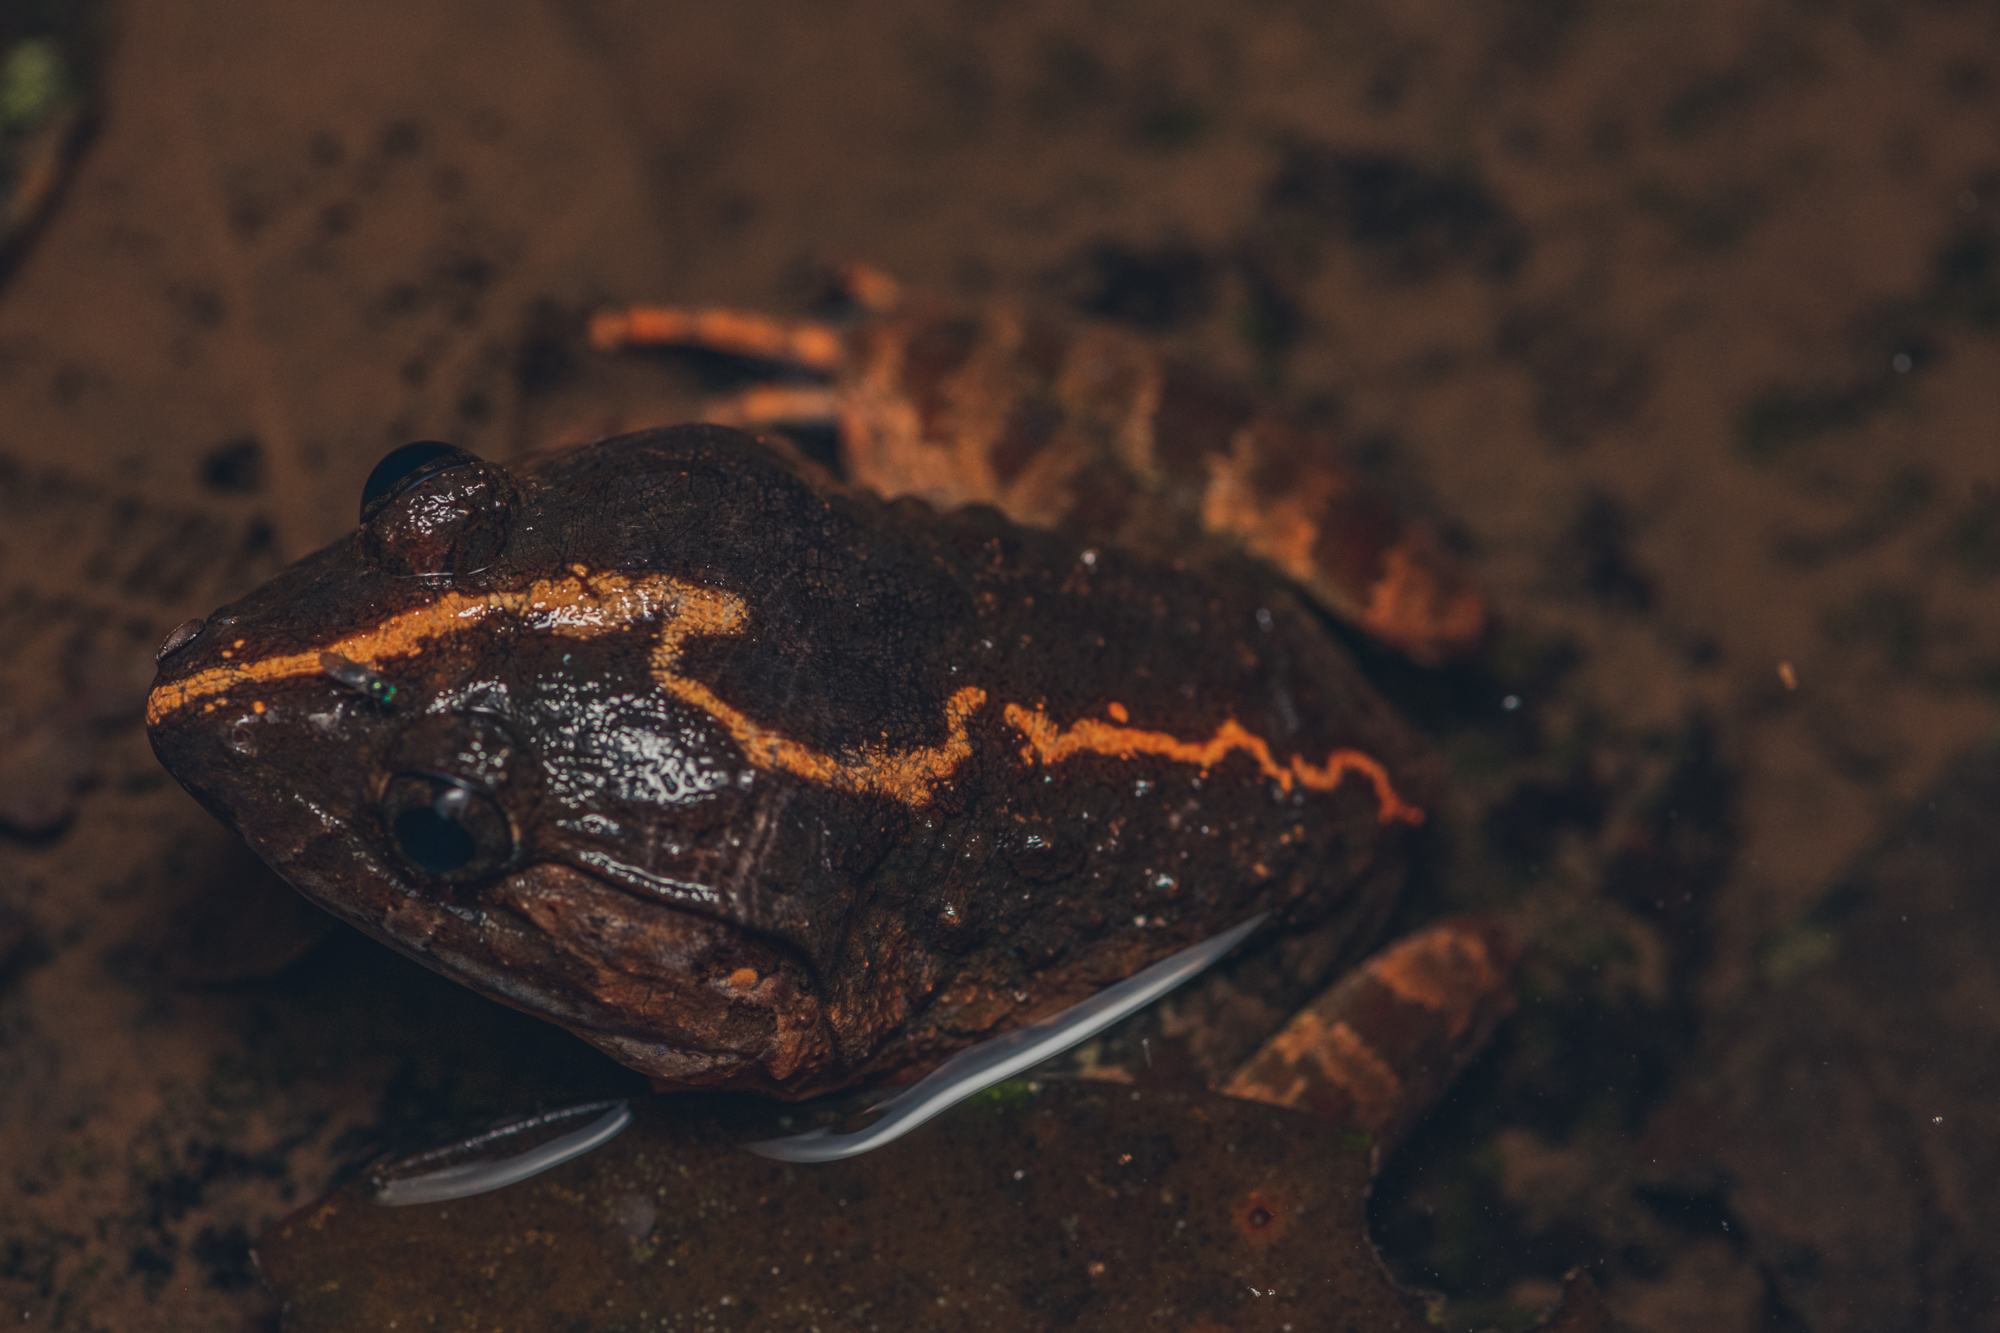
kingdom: Animalia
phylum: Chordata
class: Amphibia
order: Anura
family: Dicroglossidae
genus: Limnonectes
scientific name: Limnonectes poilani
